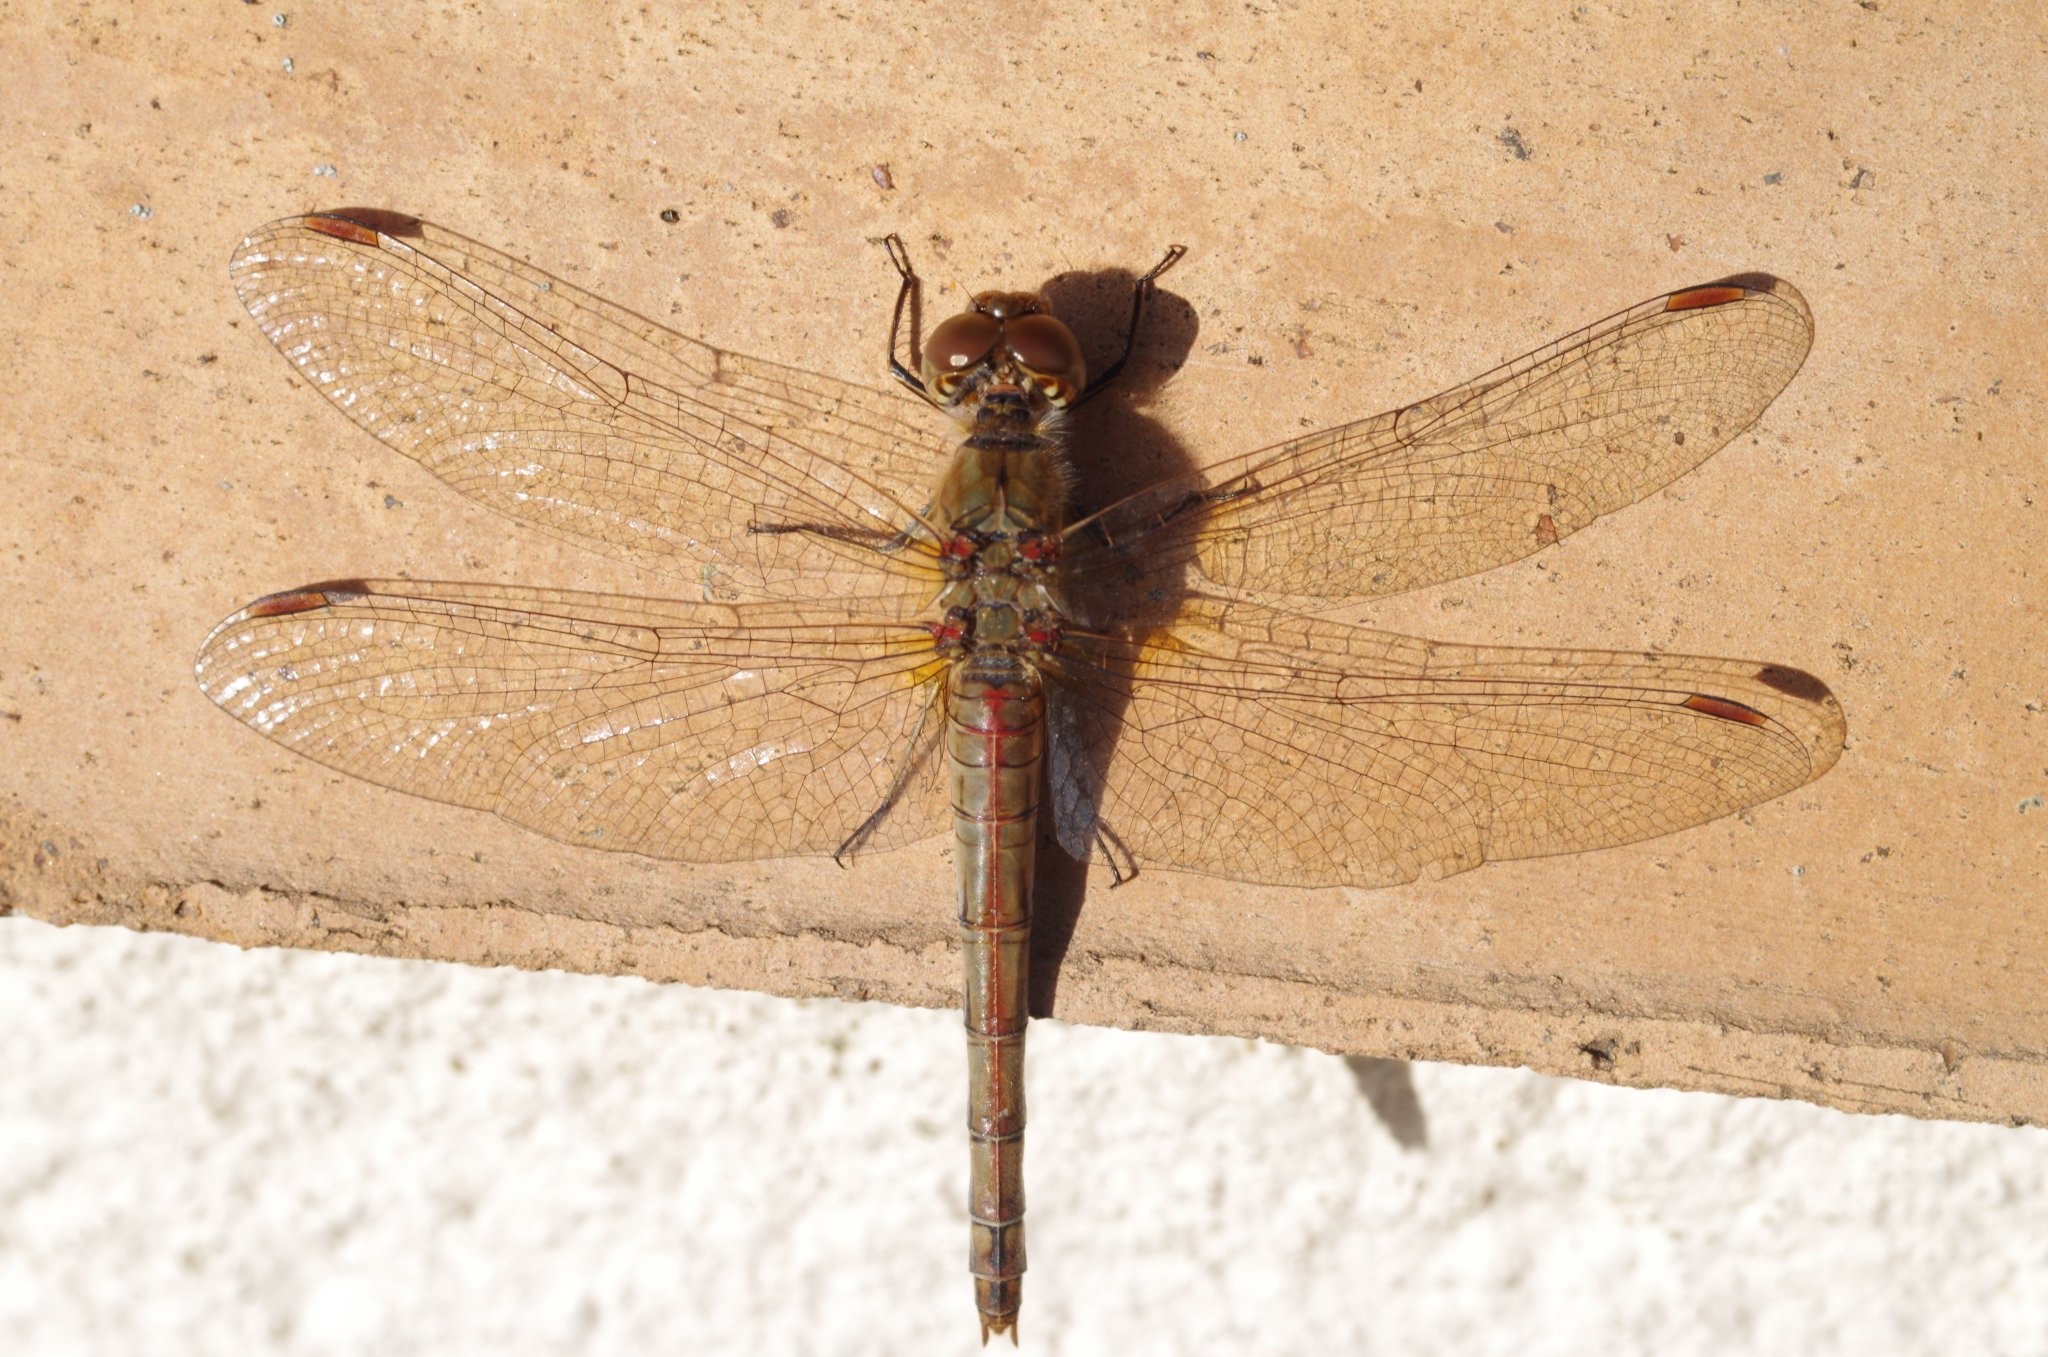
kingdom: Animalia
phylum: Arthropoda
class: Insecta
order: Odonata
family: Libellulidae
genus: Sympetrum
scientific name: Sympetrum striolatum
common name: Common darter
